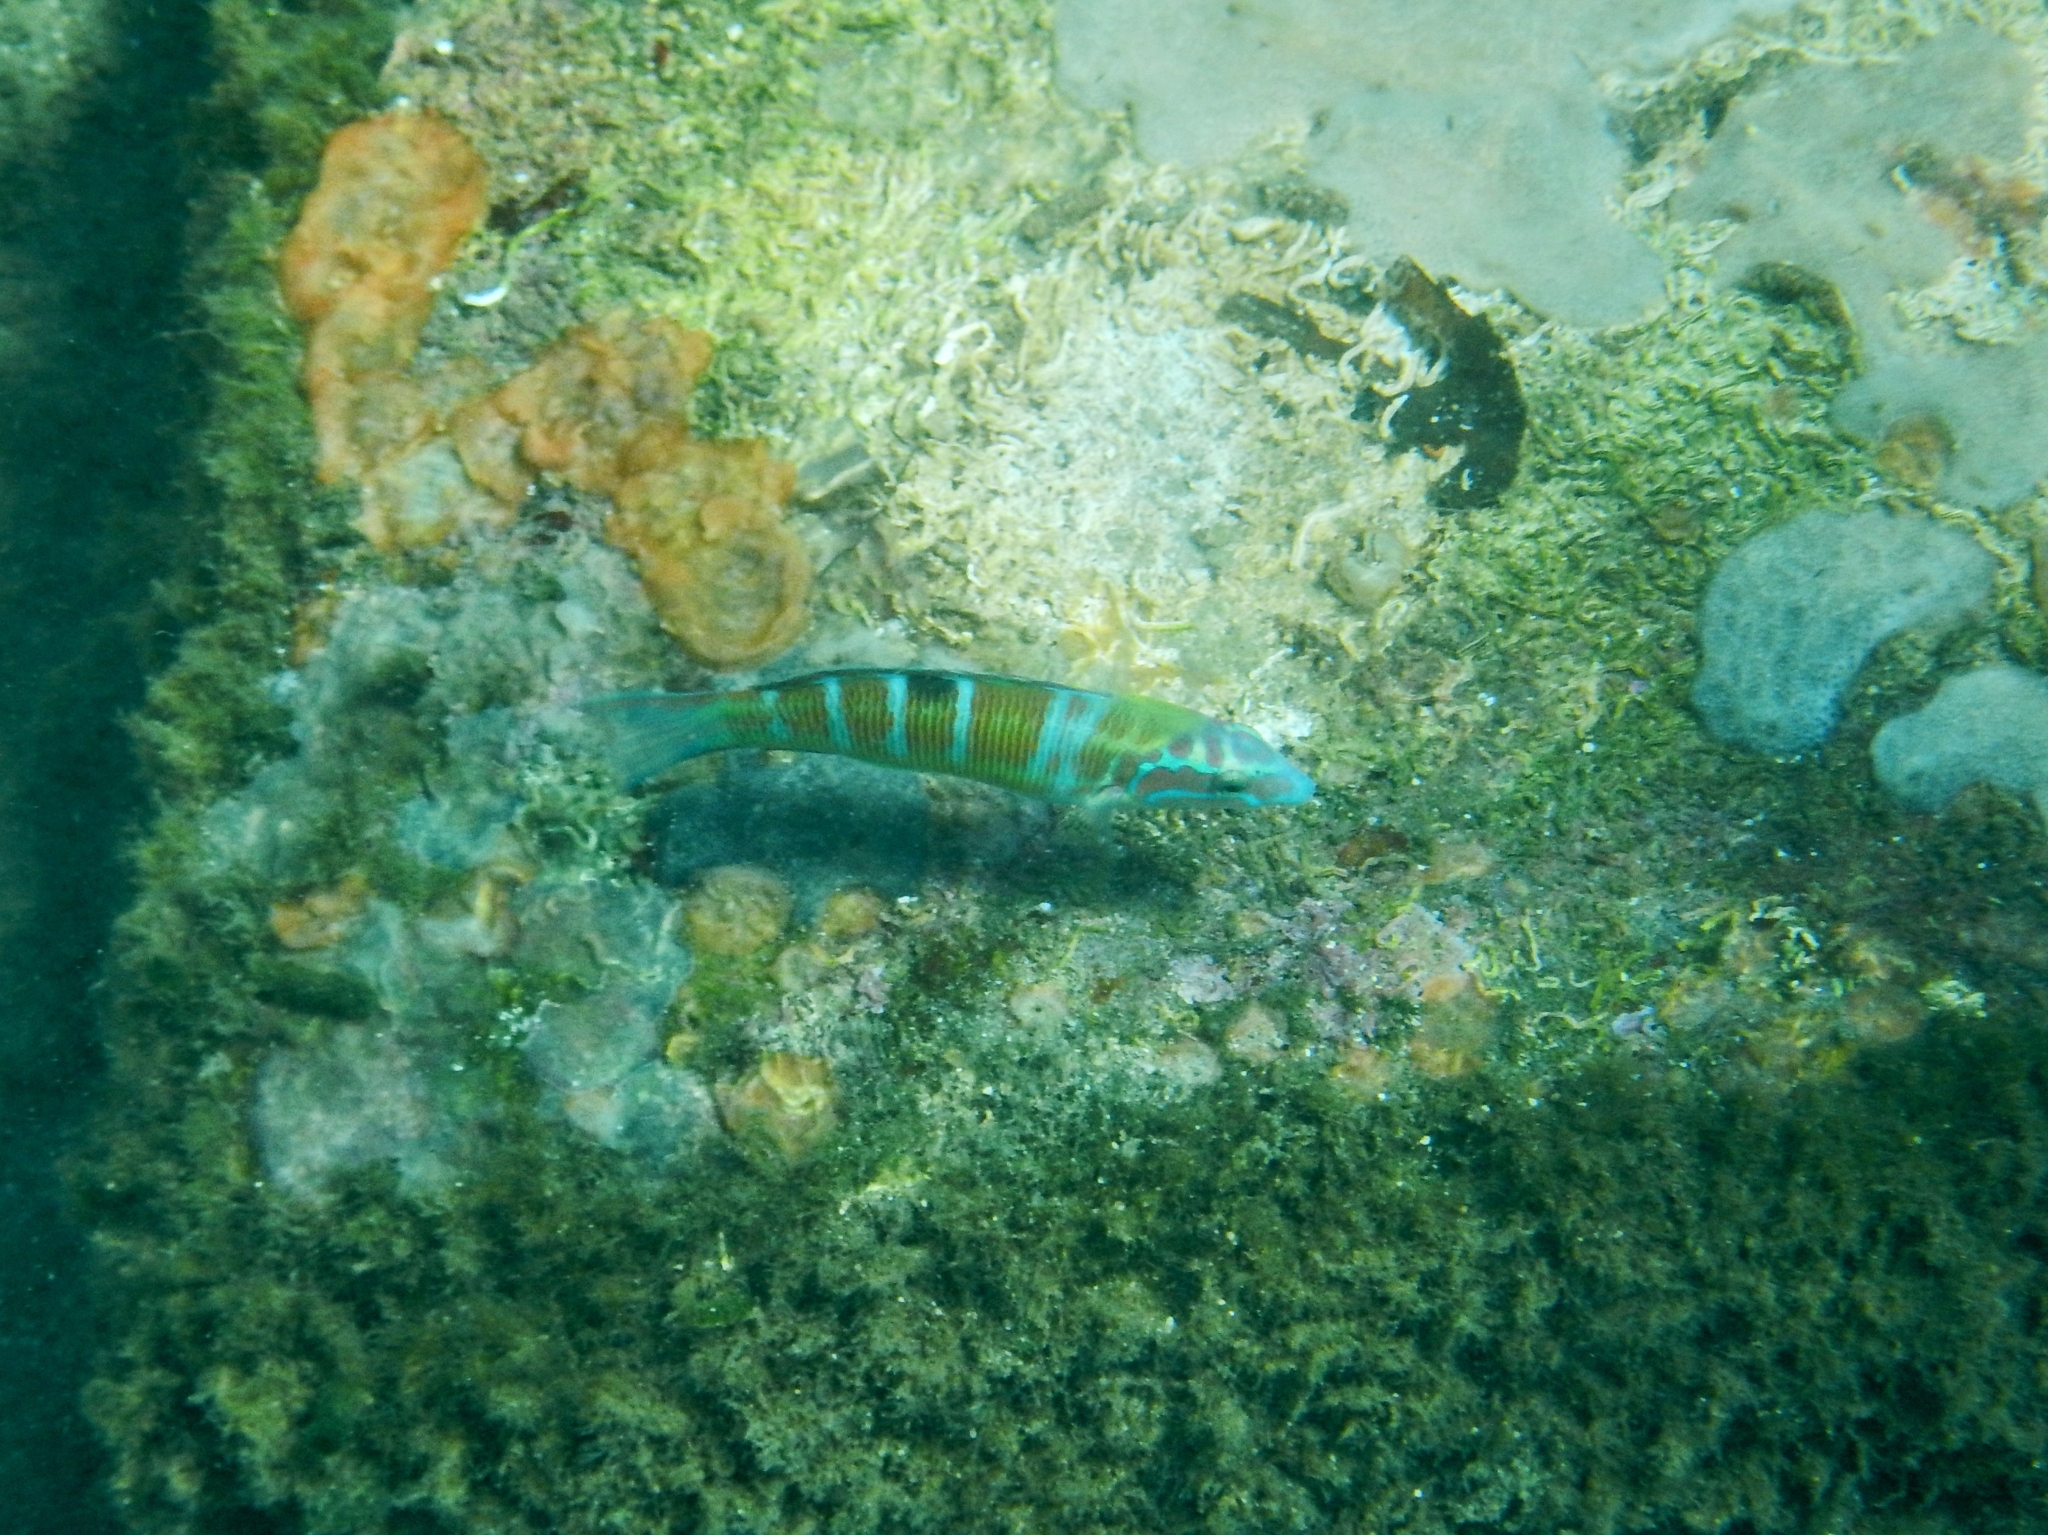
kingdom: Animalia
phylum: Chordata
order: Perciformes
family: Labridae
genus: Thalassoma
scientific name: Thalassoma pavo
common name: Ornate wrasse
